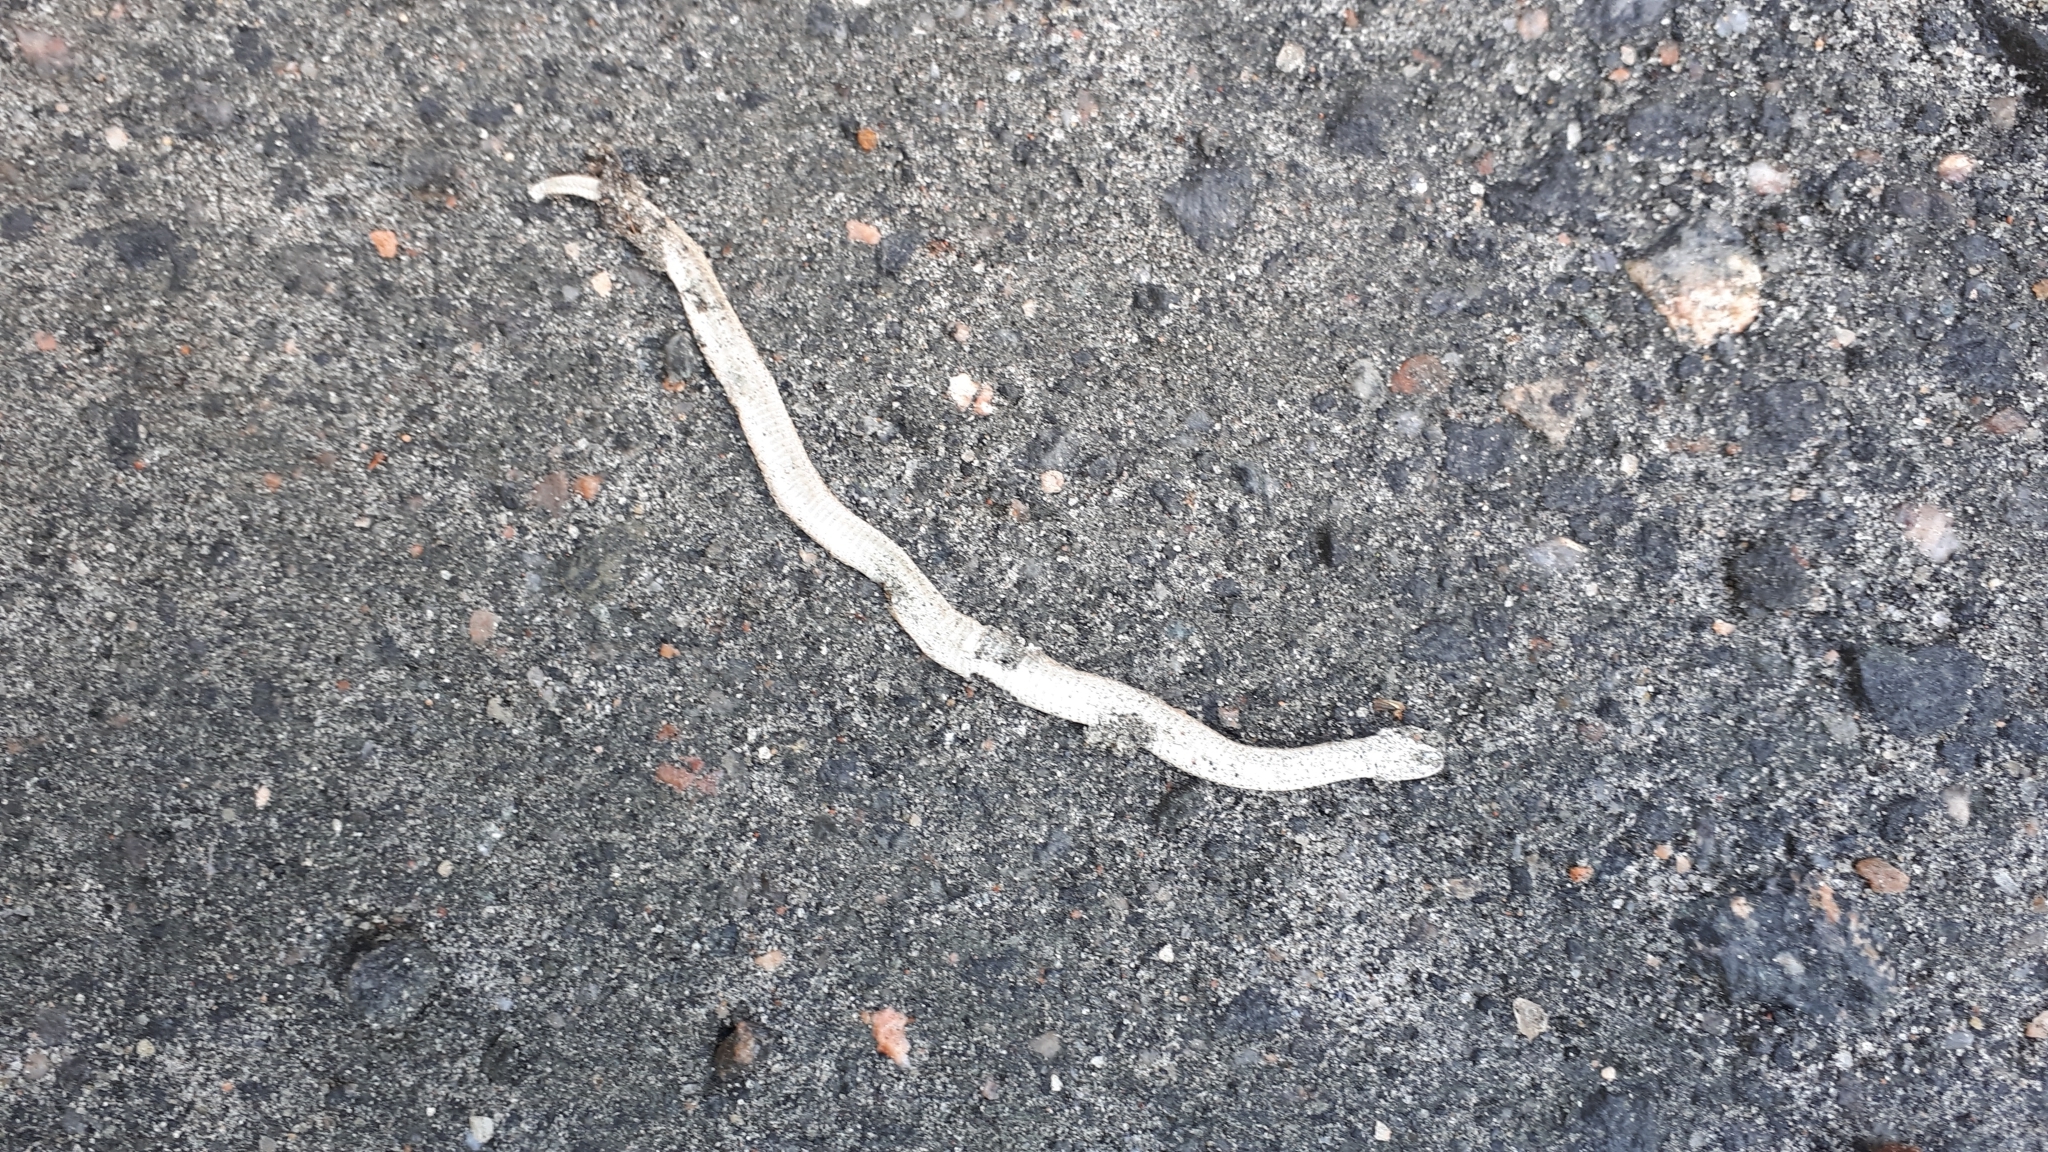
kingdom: Animalia
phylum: Chordata
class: Squamata
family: Colubridae
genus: Storeria
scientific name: Storeria dekayi
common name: (dekay’s) brown snake
